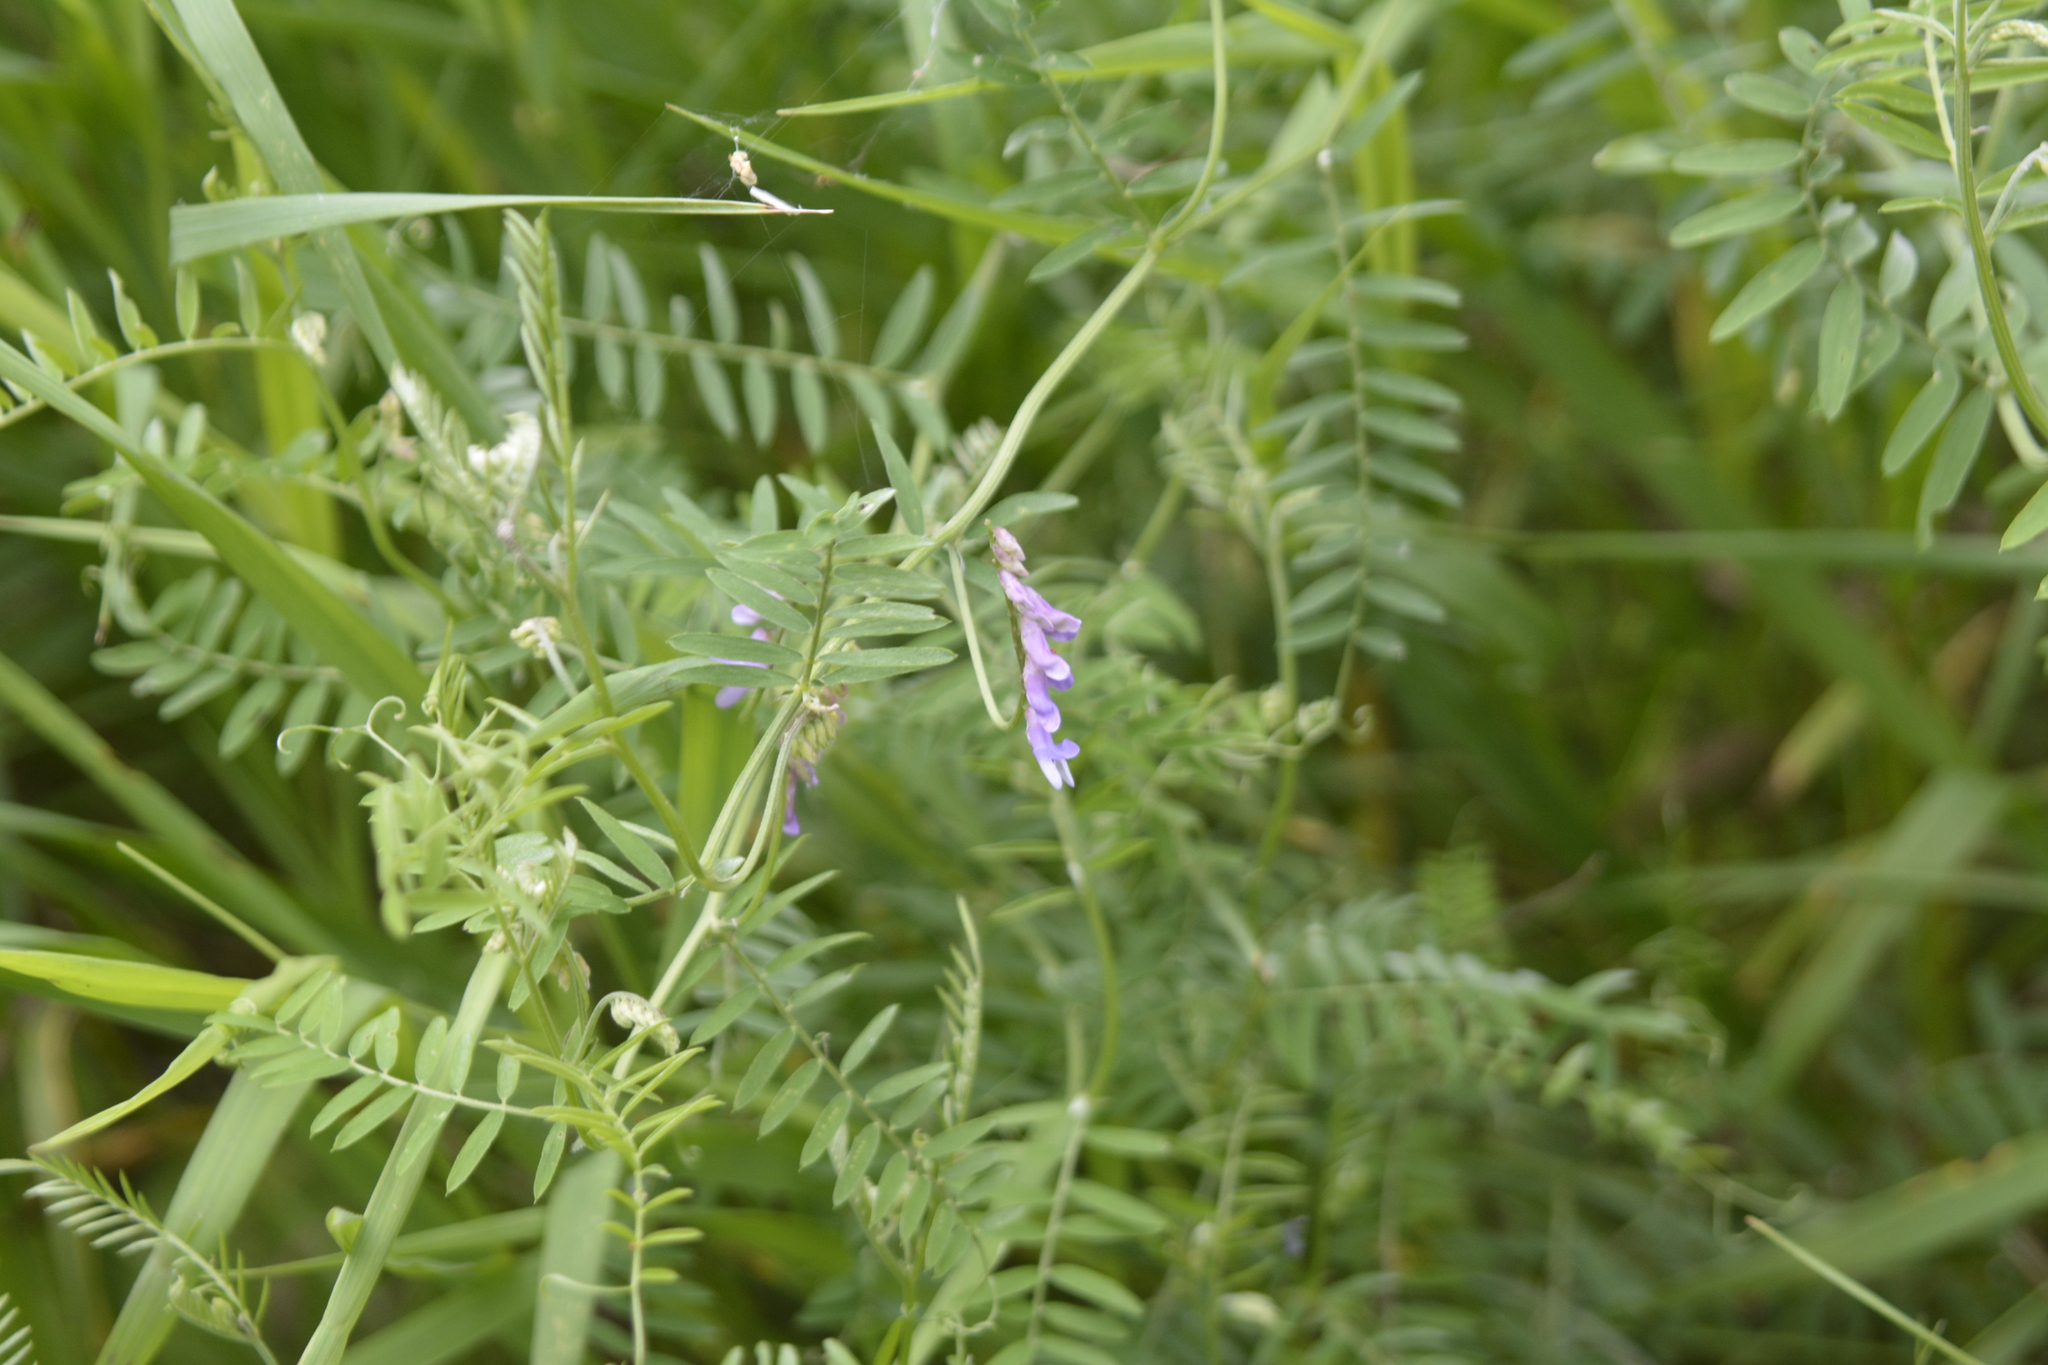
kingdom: Plantae
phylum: Tracheophyta
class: Magnoliopsida
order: Fabales
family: Fabaceae
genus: Vicia
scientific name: Vicia cracca
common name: Bird vetch
